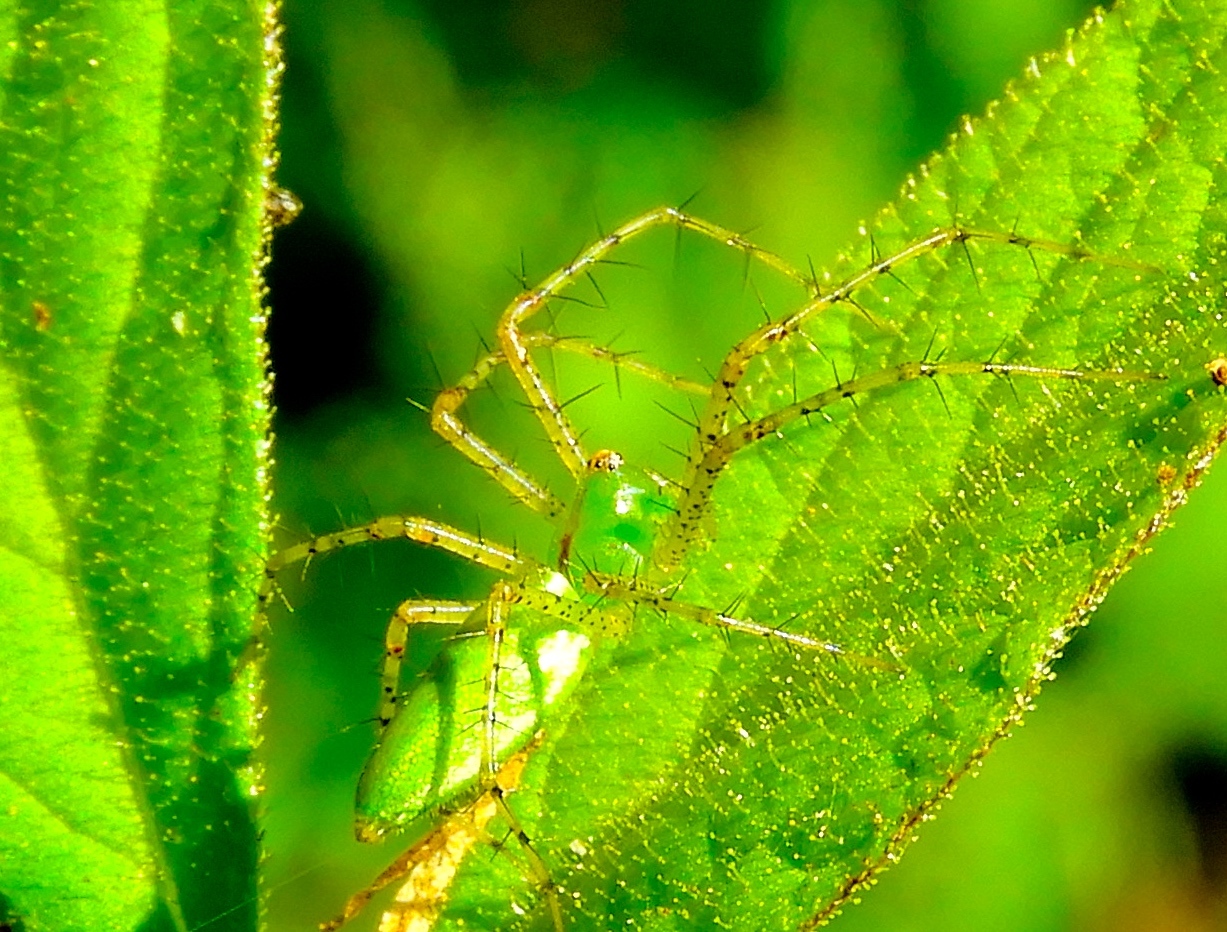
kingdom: Animalia
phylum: Arthropoda
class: Arachnida
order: Araneae
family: Oxyopidae
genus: Peucetia
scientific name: Peucetia
